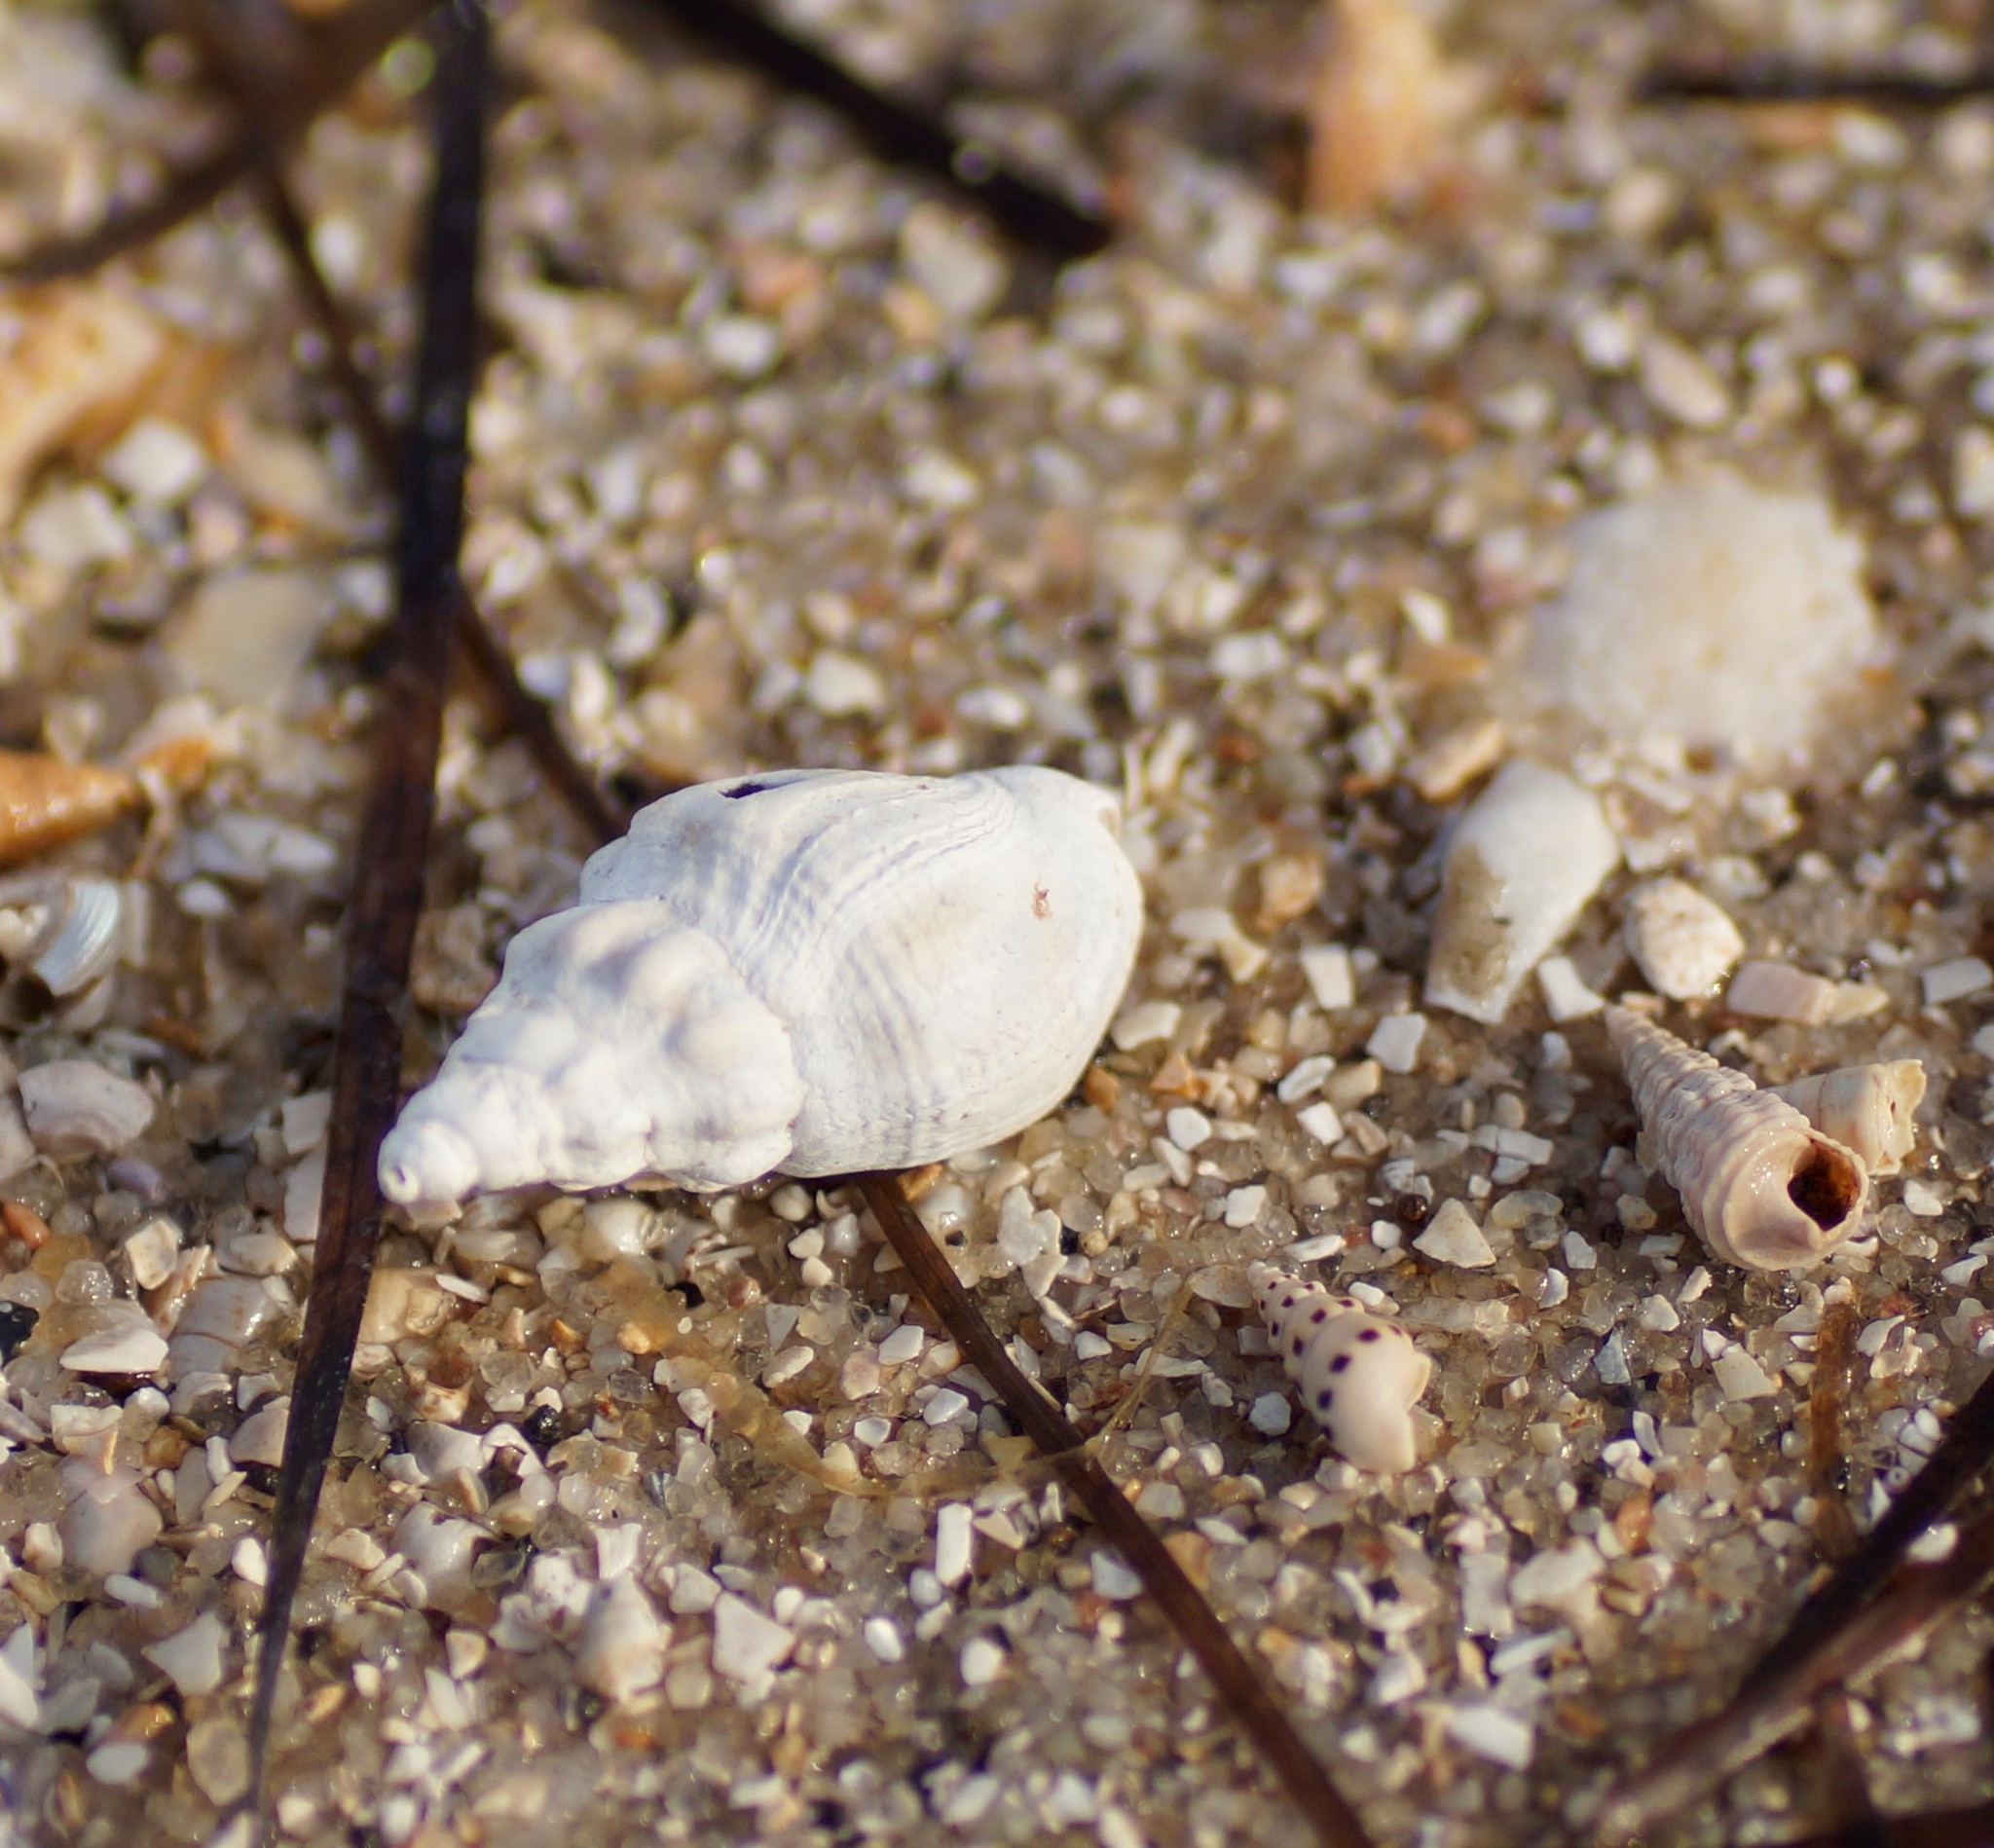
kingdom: Animalia
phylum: Mollusca
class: Gastropoda
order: Neogastropoda
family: Cominellidae
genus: Cominella
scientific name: Cominella
